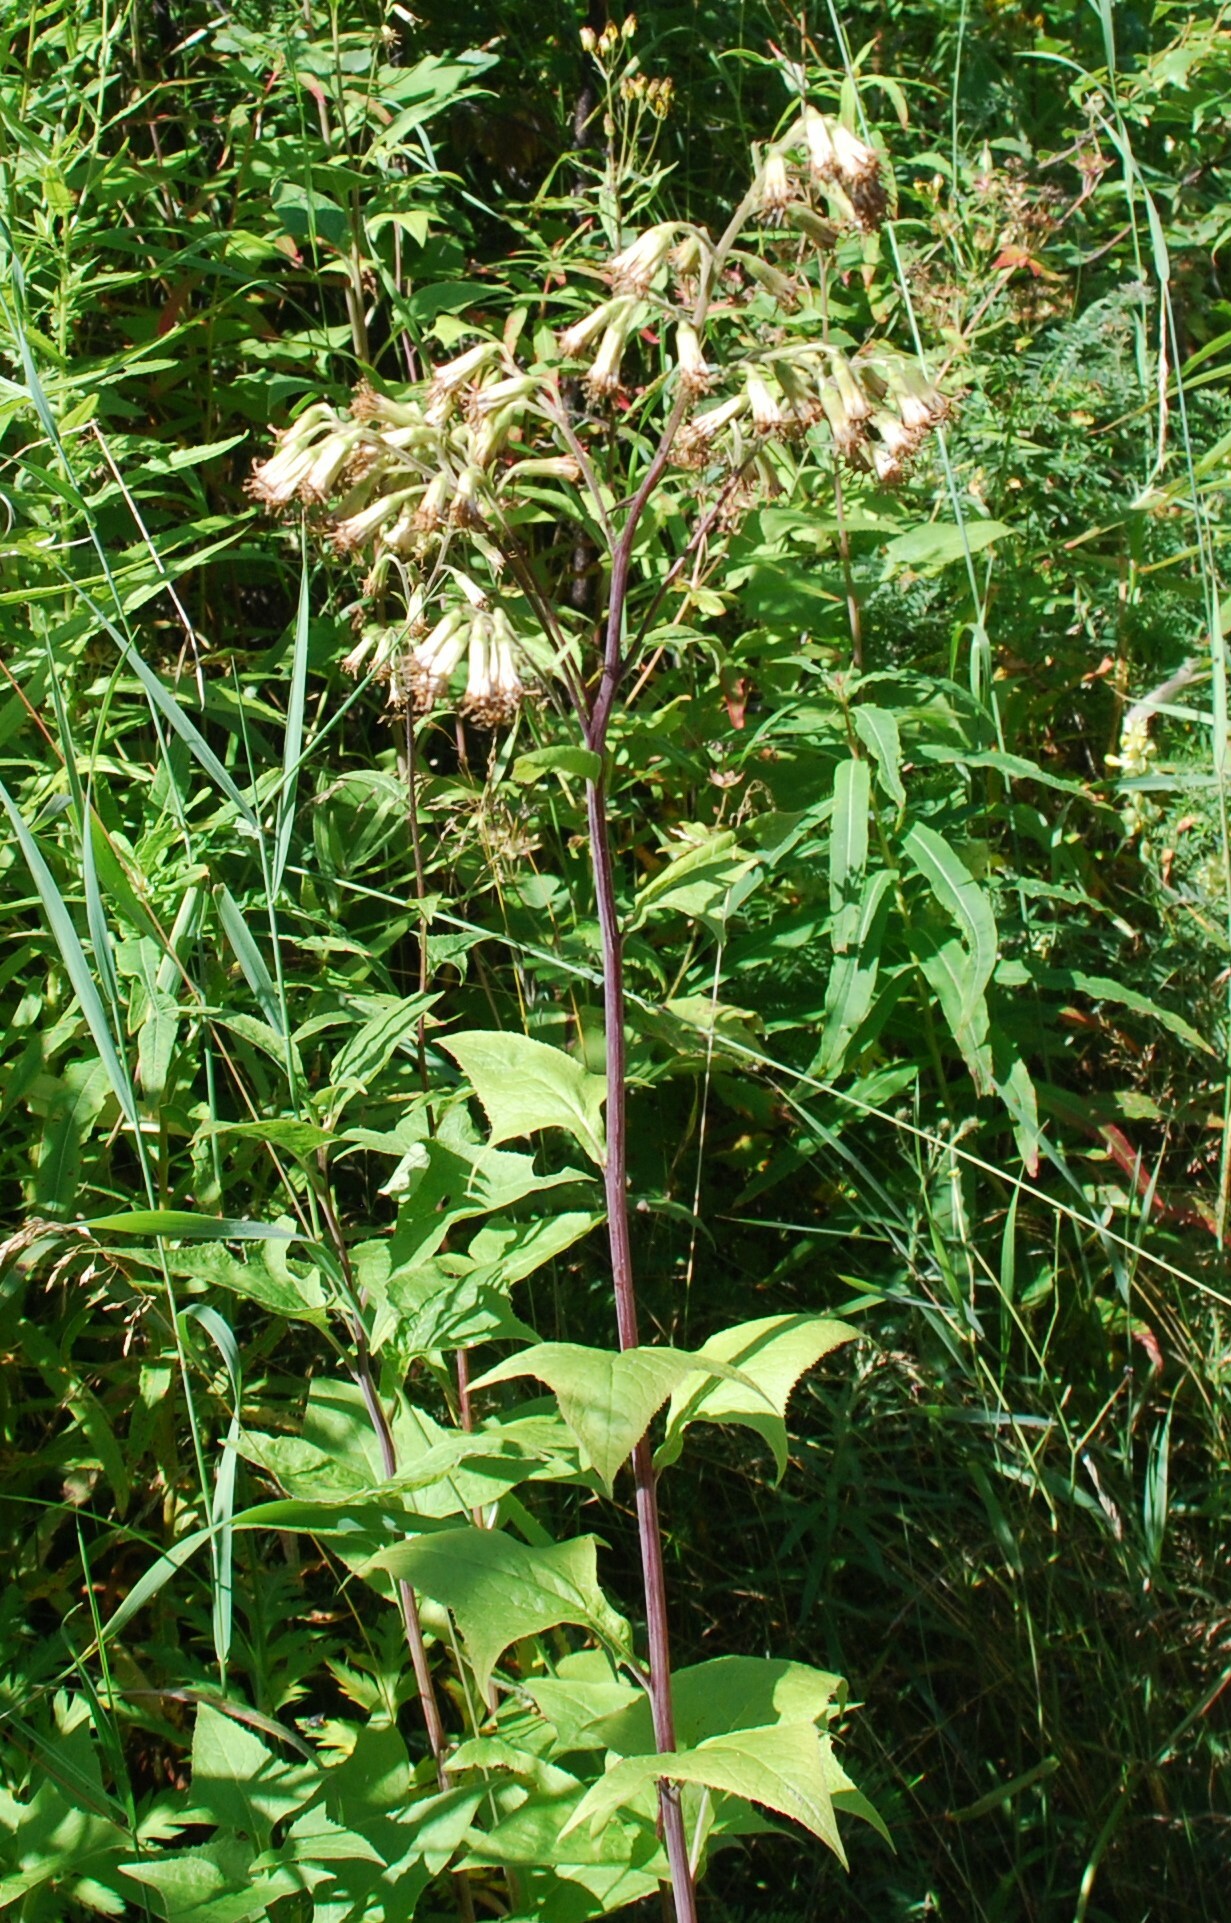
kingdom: Plantae
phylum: Tracheophyta
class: Magnoliopsida
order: Asterales
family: Asteraceae
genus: Parasenecio
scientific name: Parasenecio hastatus
